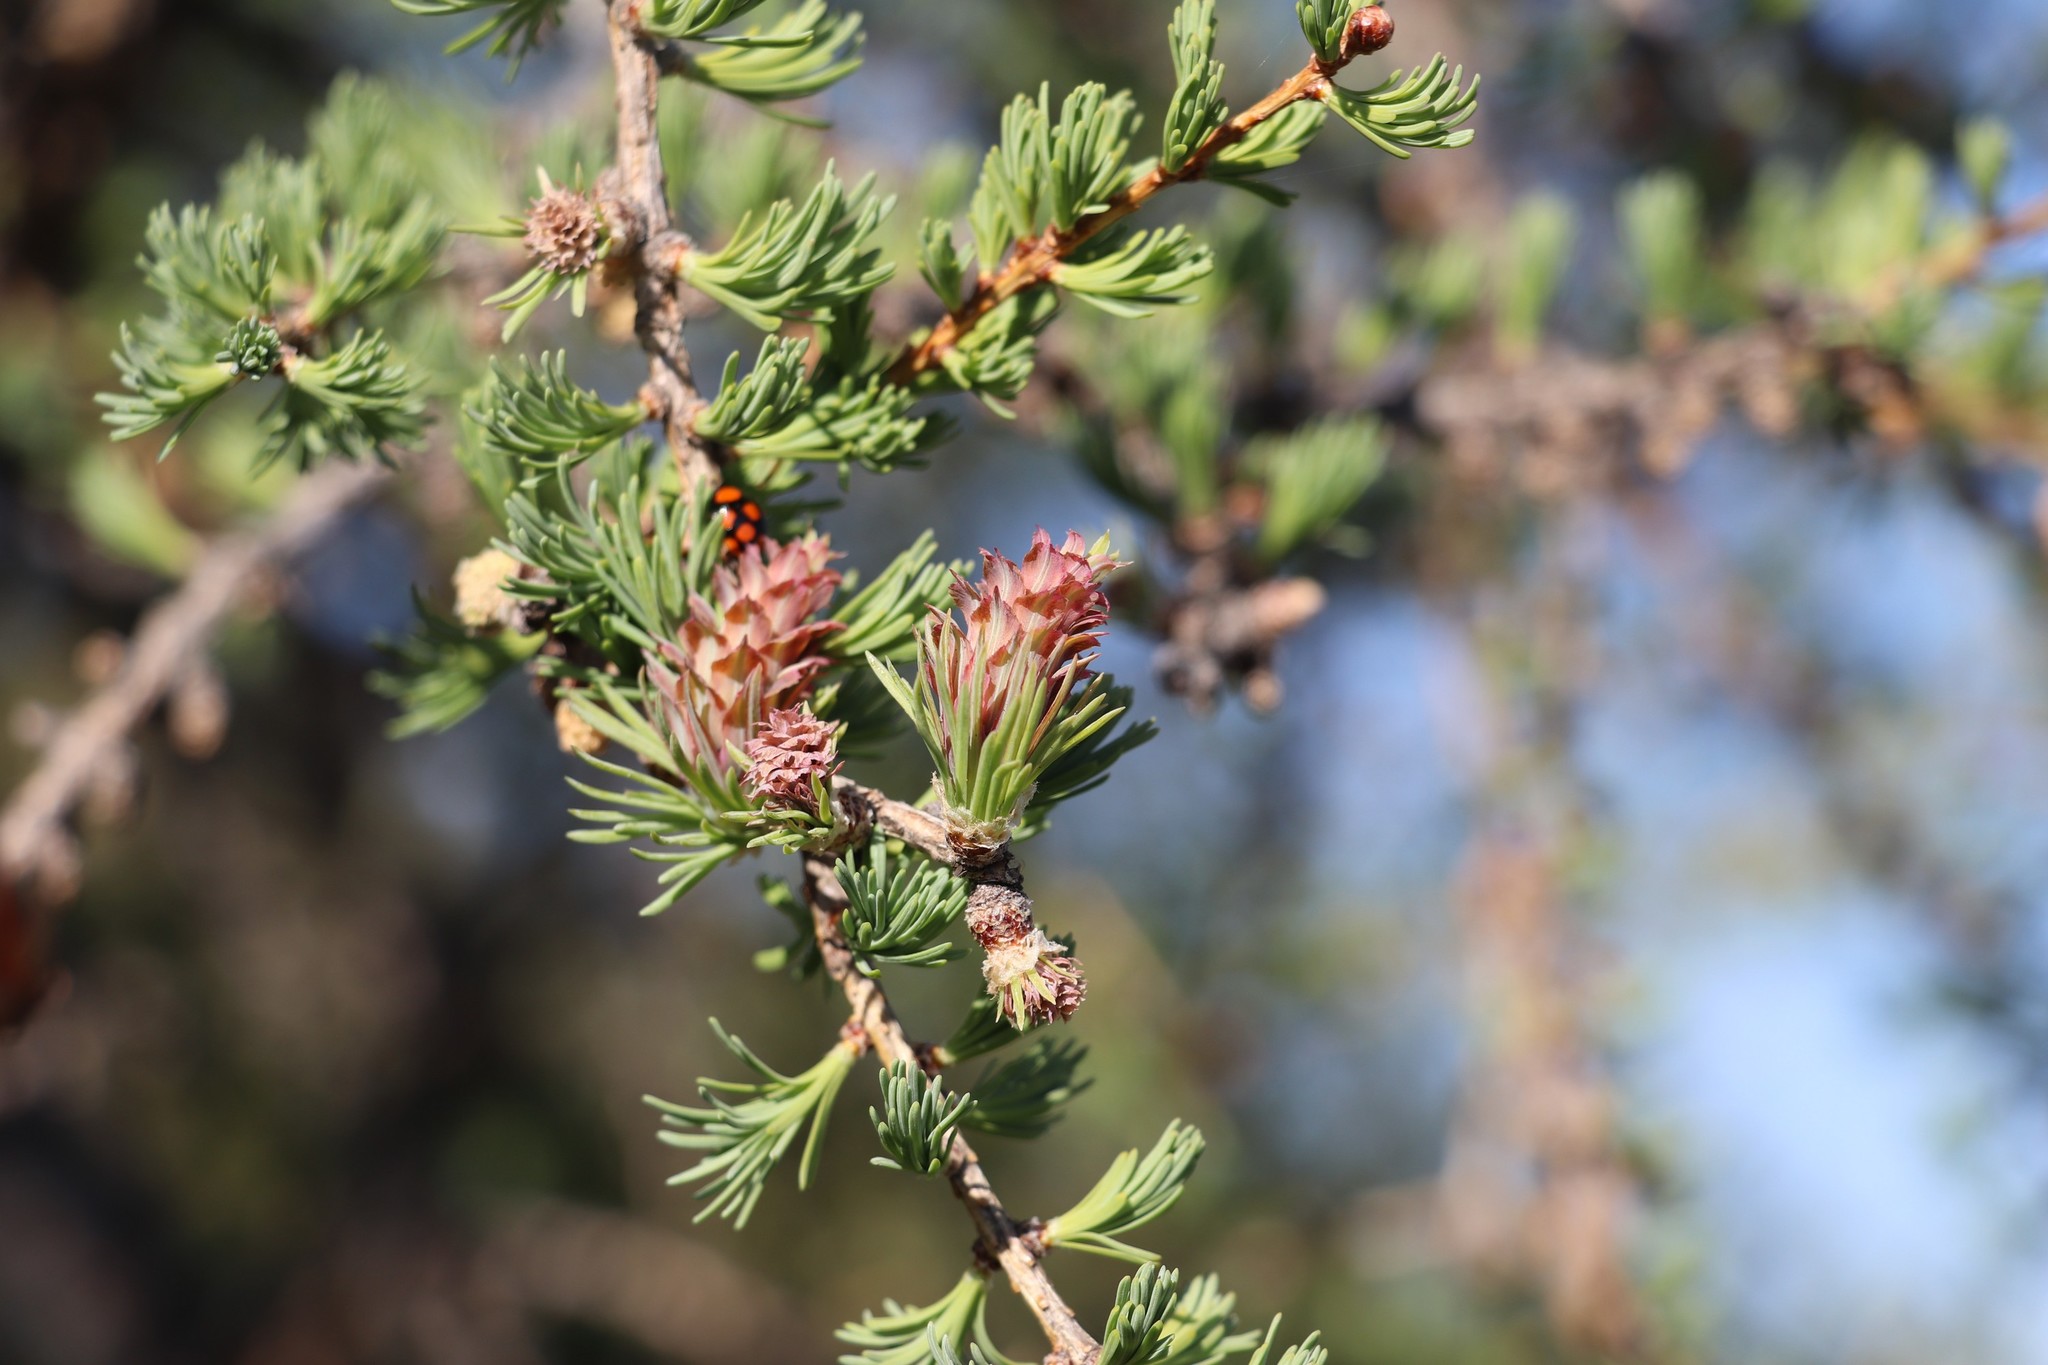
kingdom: Plantae
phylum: Tracheophyta
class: Pinopsida
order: Pinales
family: Pinaceae
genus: Larix
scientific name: Larix sibirica
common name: Siberian larch
